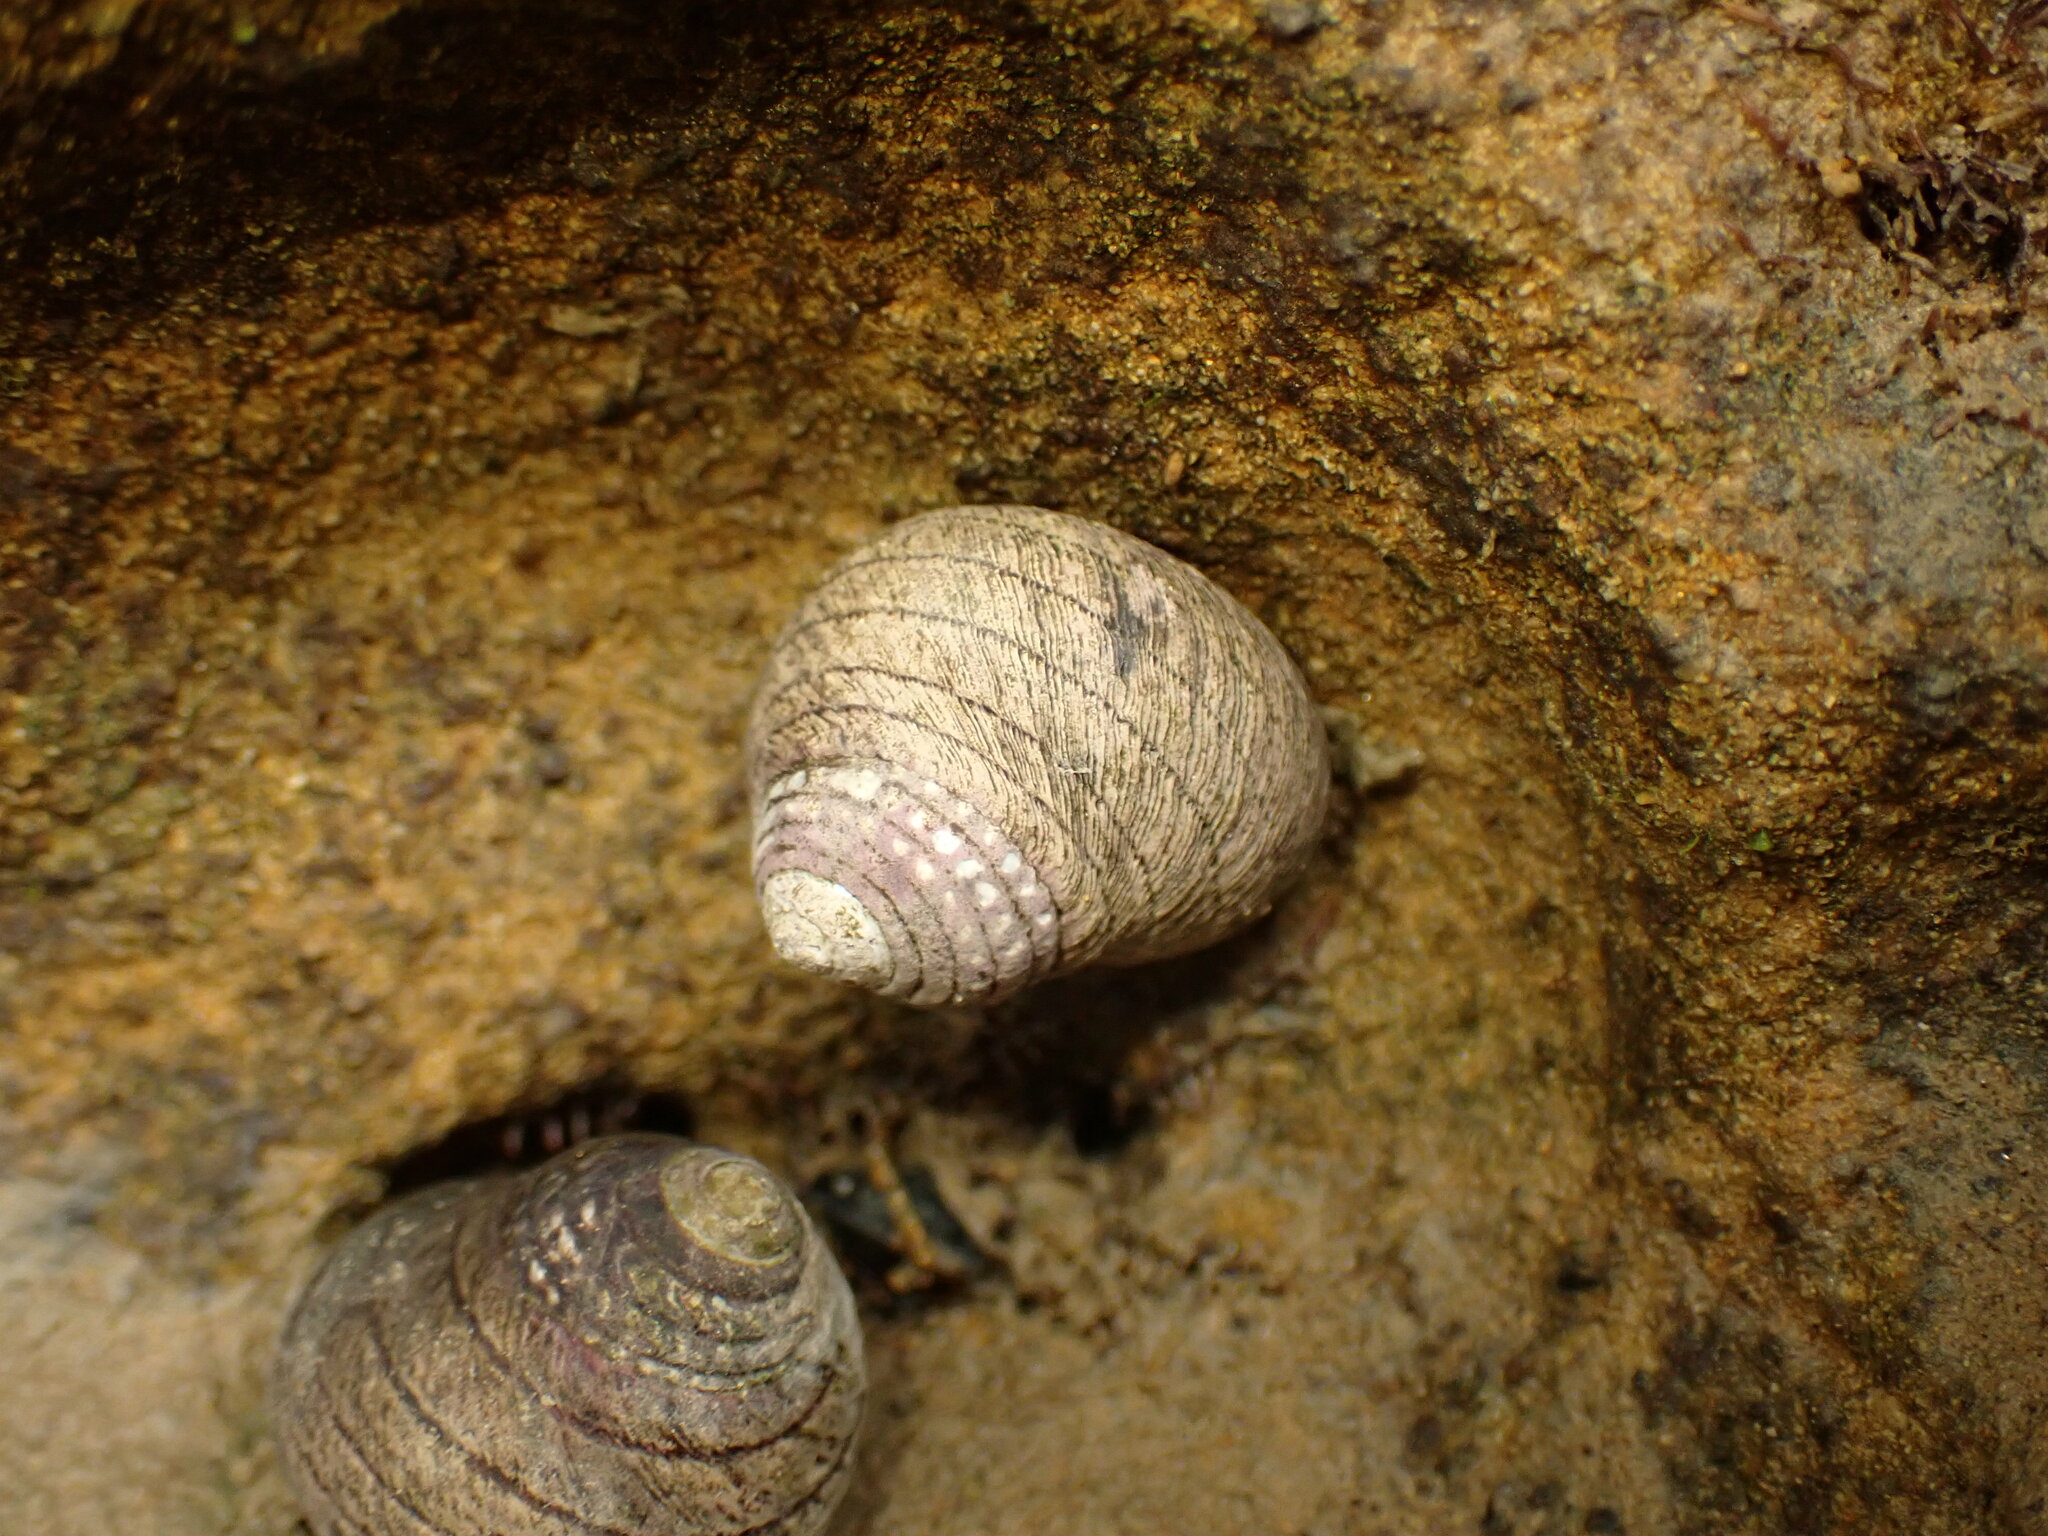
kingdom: Animalia
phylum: Mollusca
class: Gastropoda
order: Trochida
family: Trochidae
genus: Diloma
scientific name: Diloma aethiops
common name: Scorched monodont
